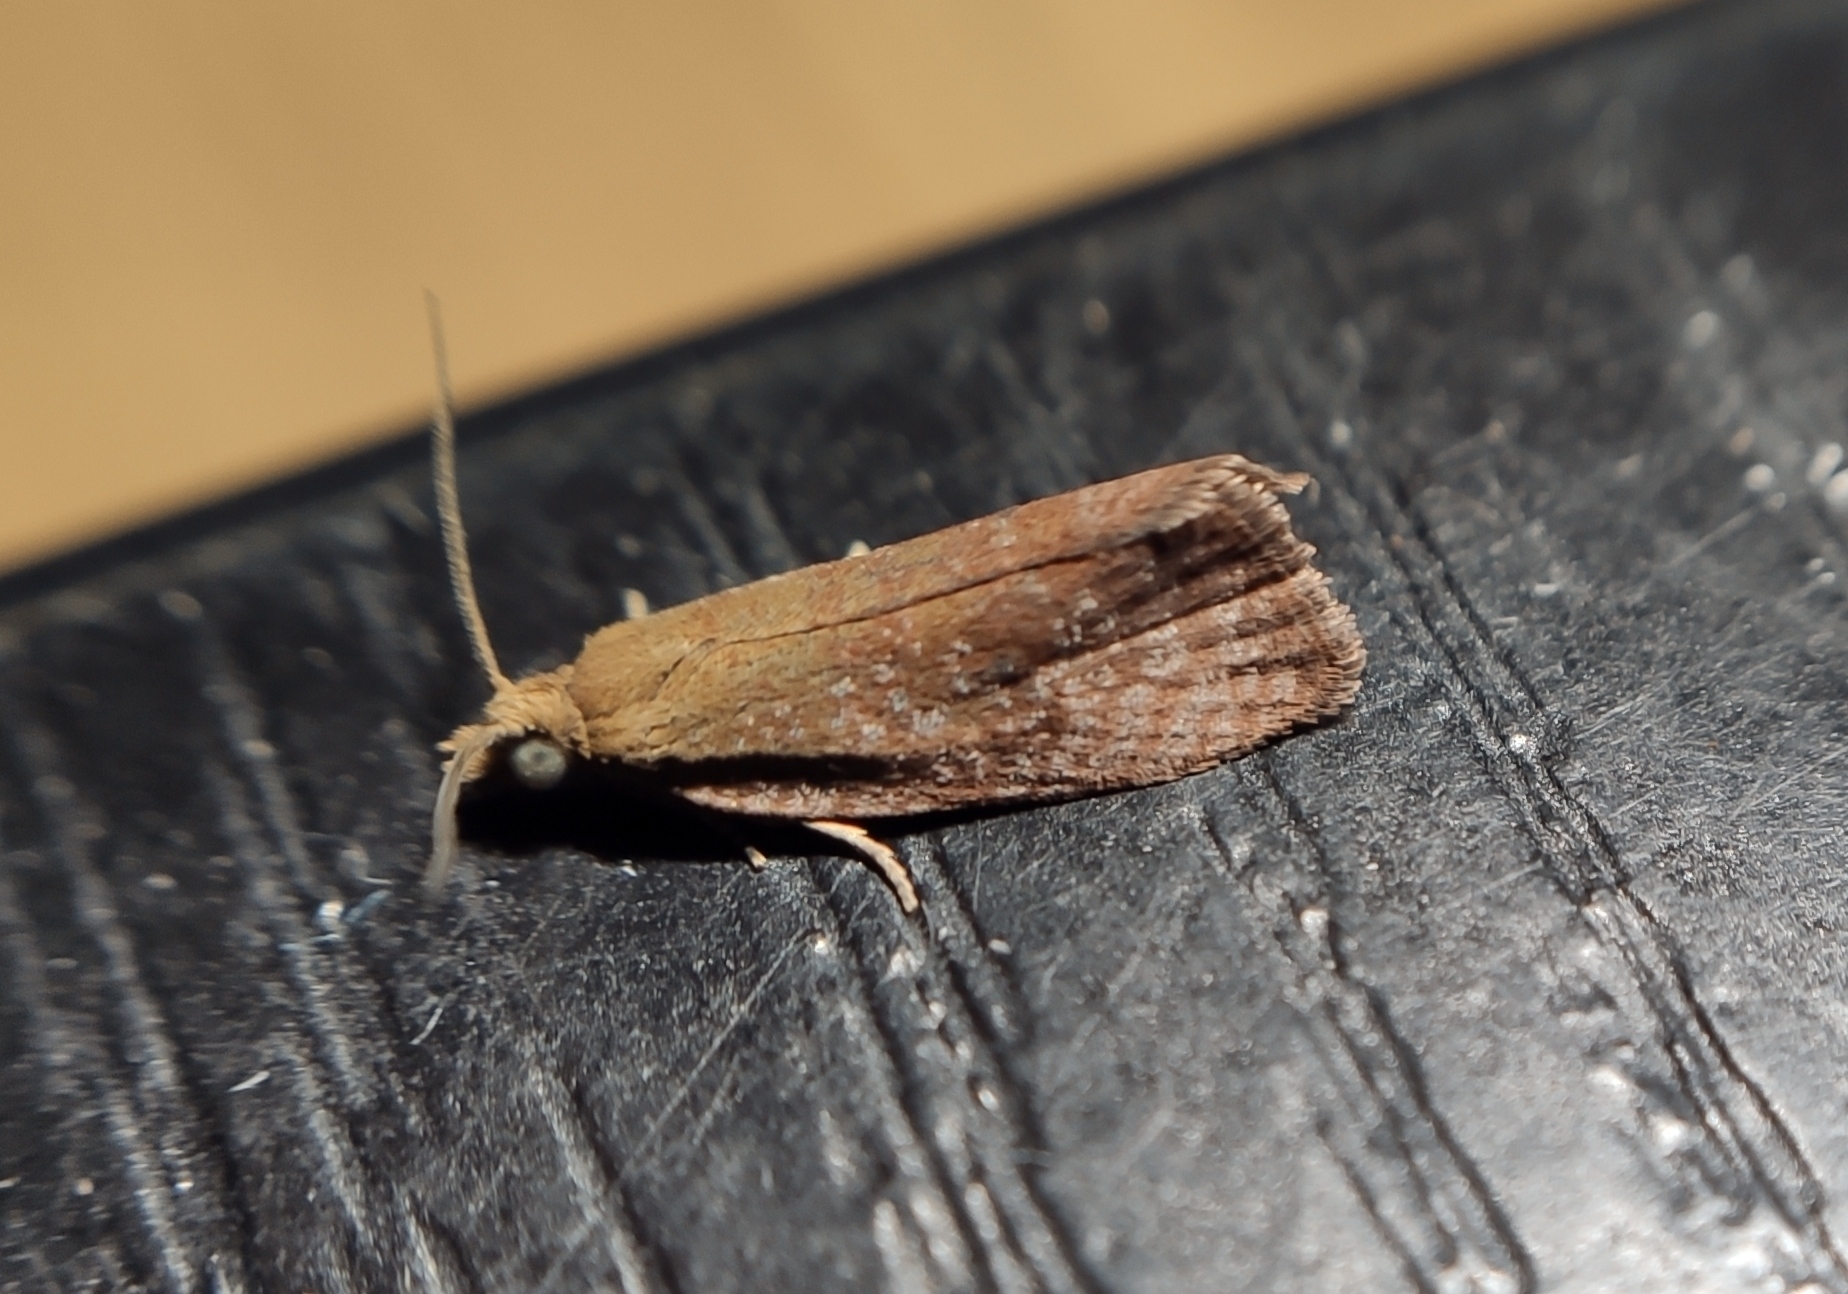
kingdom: Animalia
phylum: Arthropoda
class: Insecta
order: Lepidoptera
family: Tortricidae
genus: Celypha
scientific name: Celypha rufana
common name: Lakes marble
